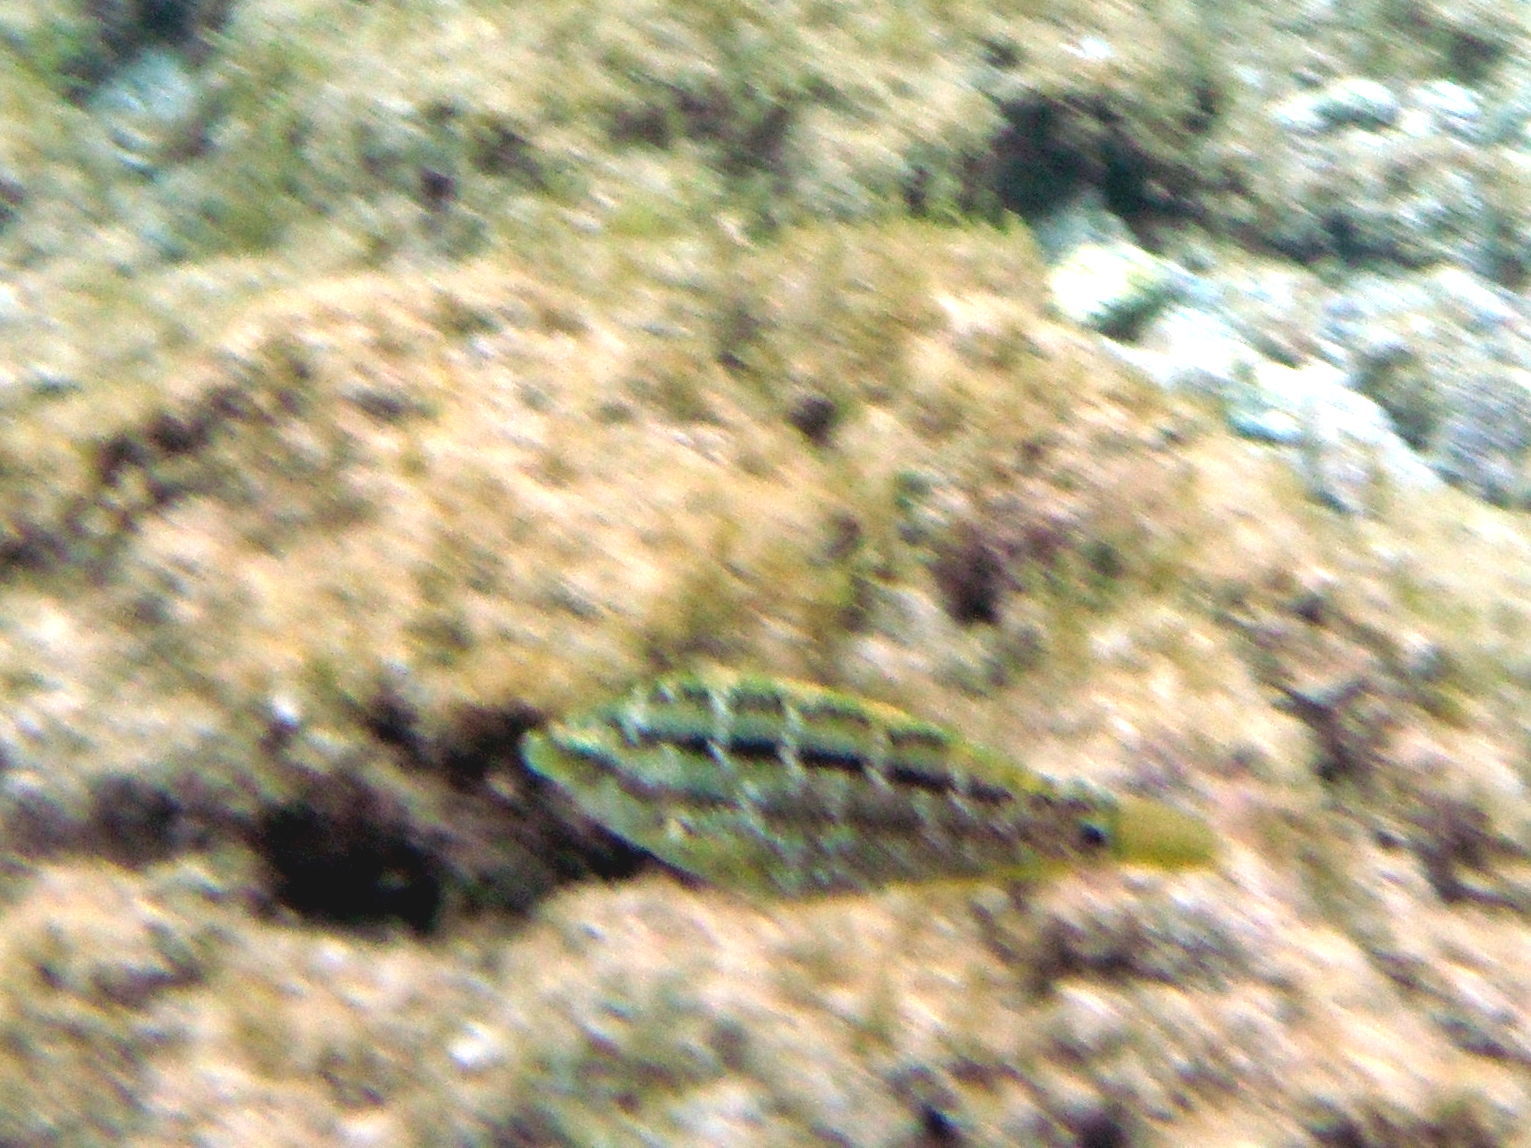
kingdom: Animalia
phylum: Chordata
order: Perciformes
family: Labridae
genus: Symphodus
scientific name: Symphodus trutta
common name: Emerald wrasse
